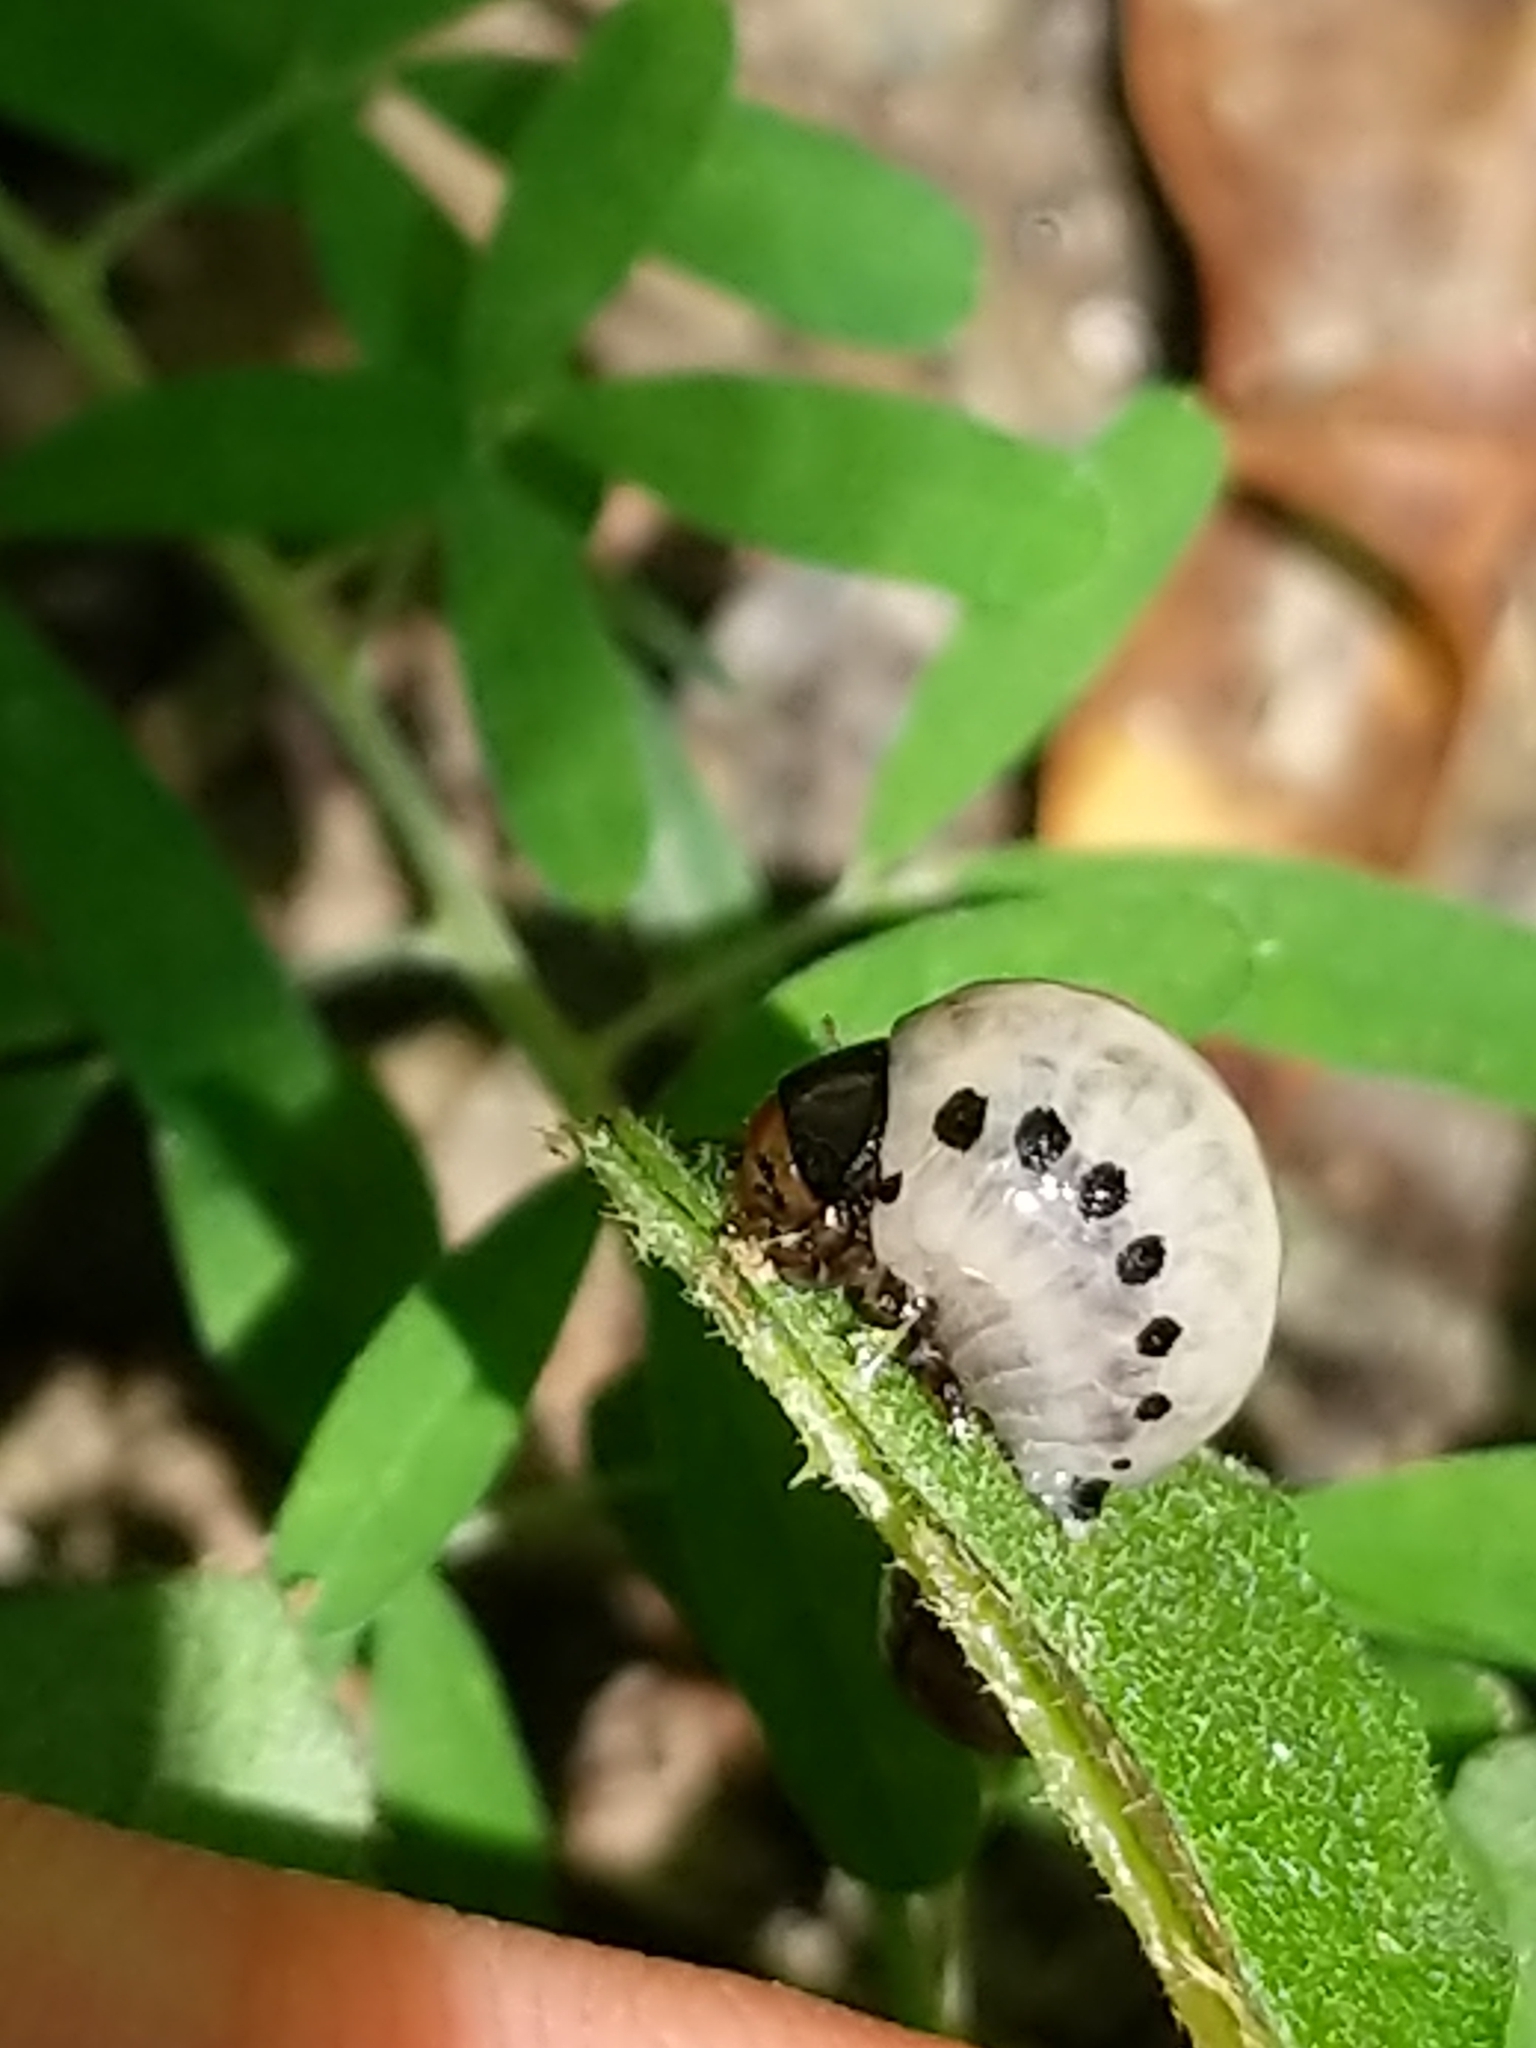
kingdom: Animalia
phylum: Arthropoda
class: Insecta
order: Coleoptera
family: Chrysomelidae
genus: Leptinotarsa
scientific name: Leptinotarsa juncta
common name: False potato beetle
